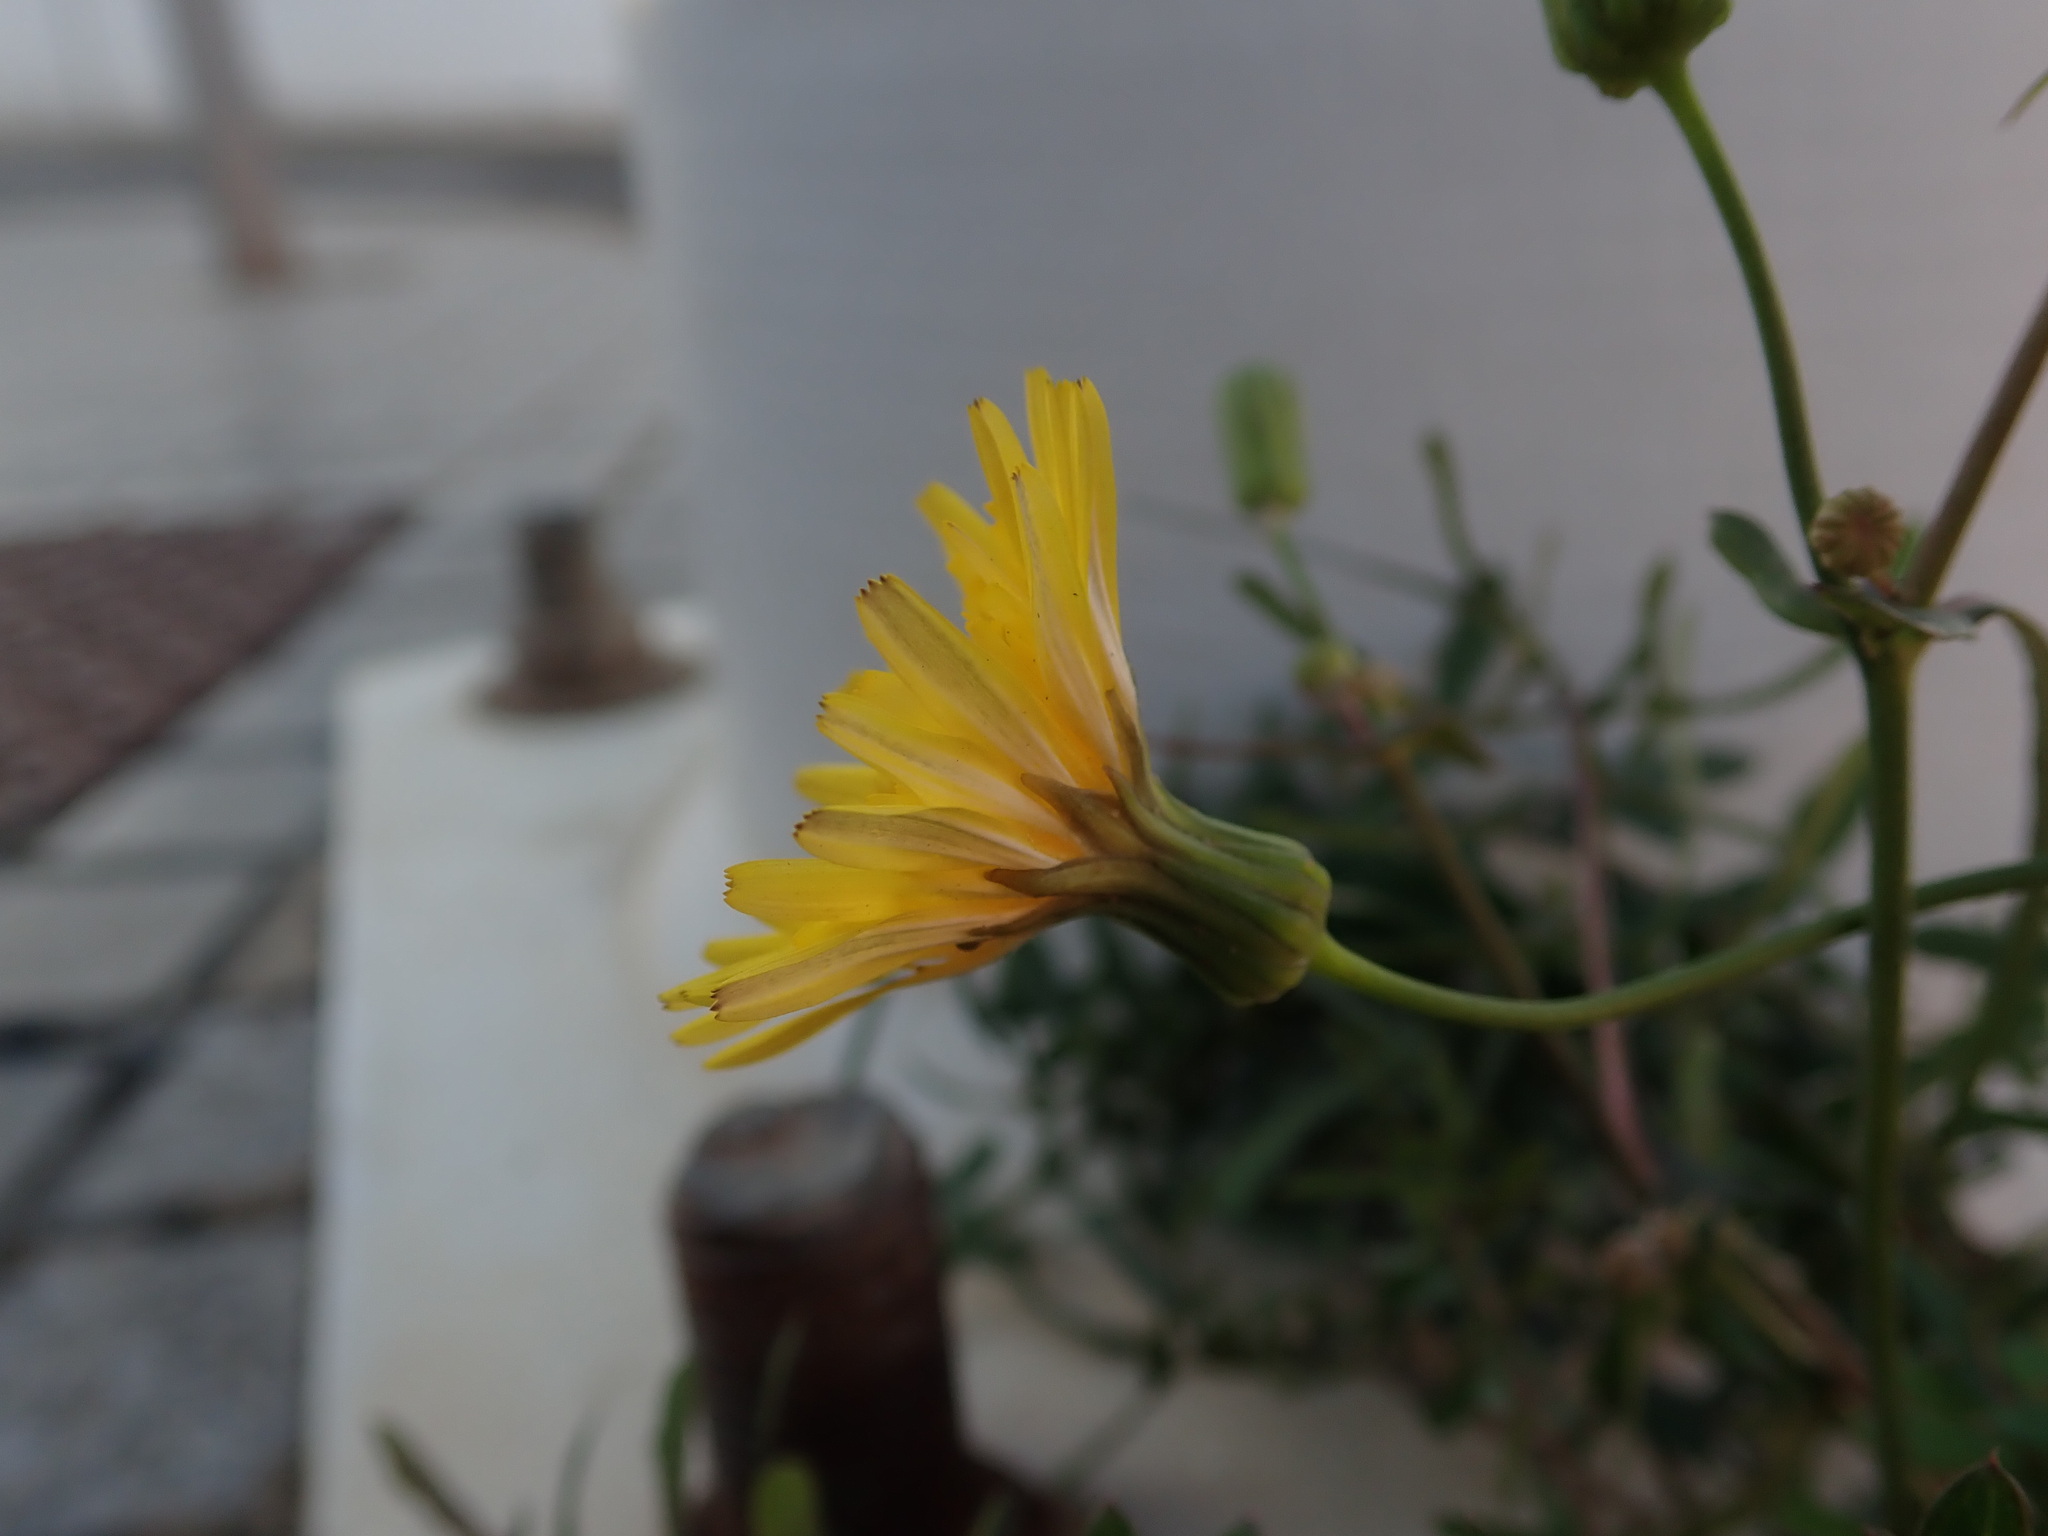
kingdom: Plantae
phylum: Tracheophyta
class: Magnoliopsida
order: Asterales
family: Asteraceae
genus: Sonchus
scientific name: Sonchus tenerrimus
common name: Clammy sowthistle
